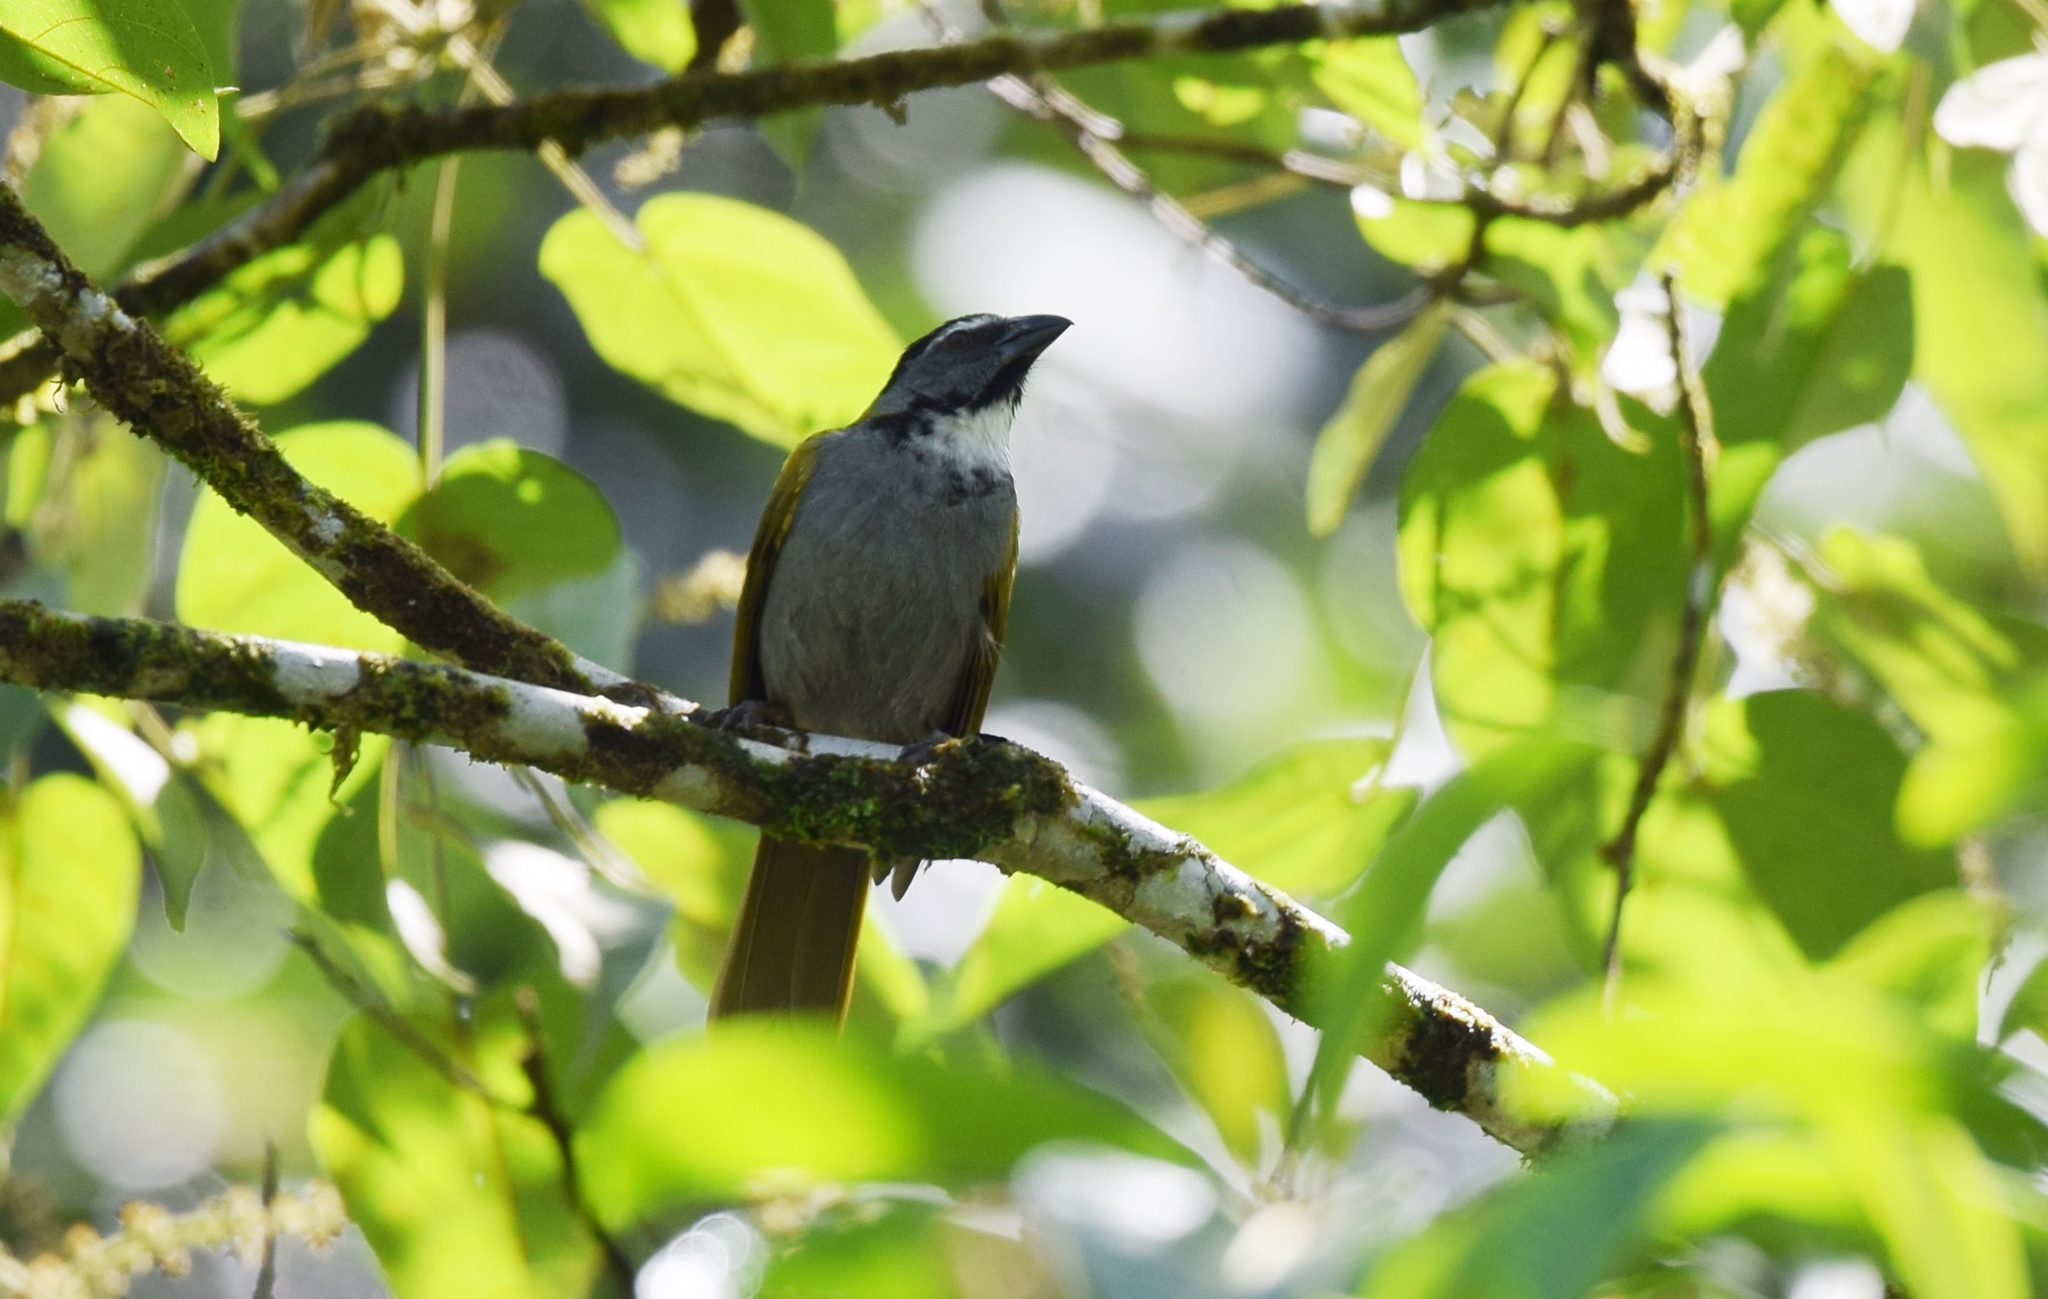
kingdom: Animalia
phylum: Chordata
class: Aves
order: Passeriformes
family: Thraupidae
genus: Saltator
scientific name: Saltator atriceps
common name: Black-headed saltator
